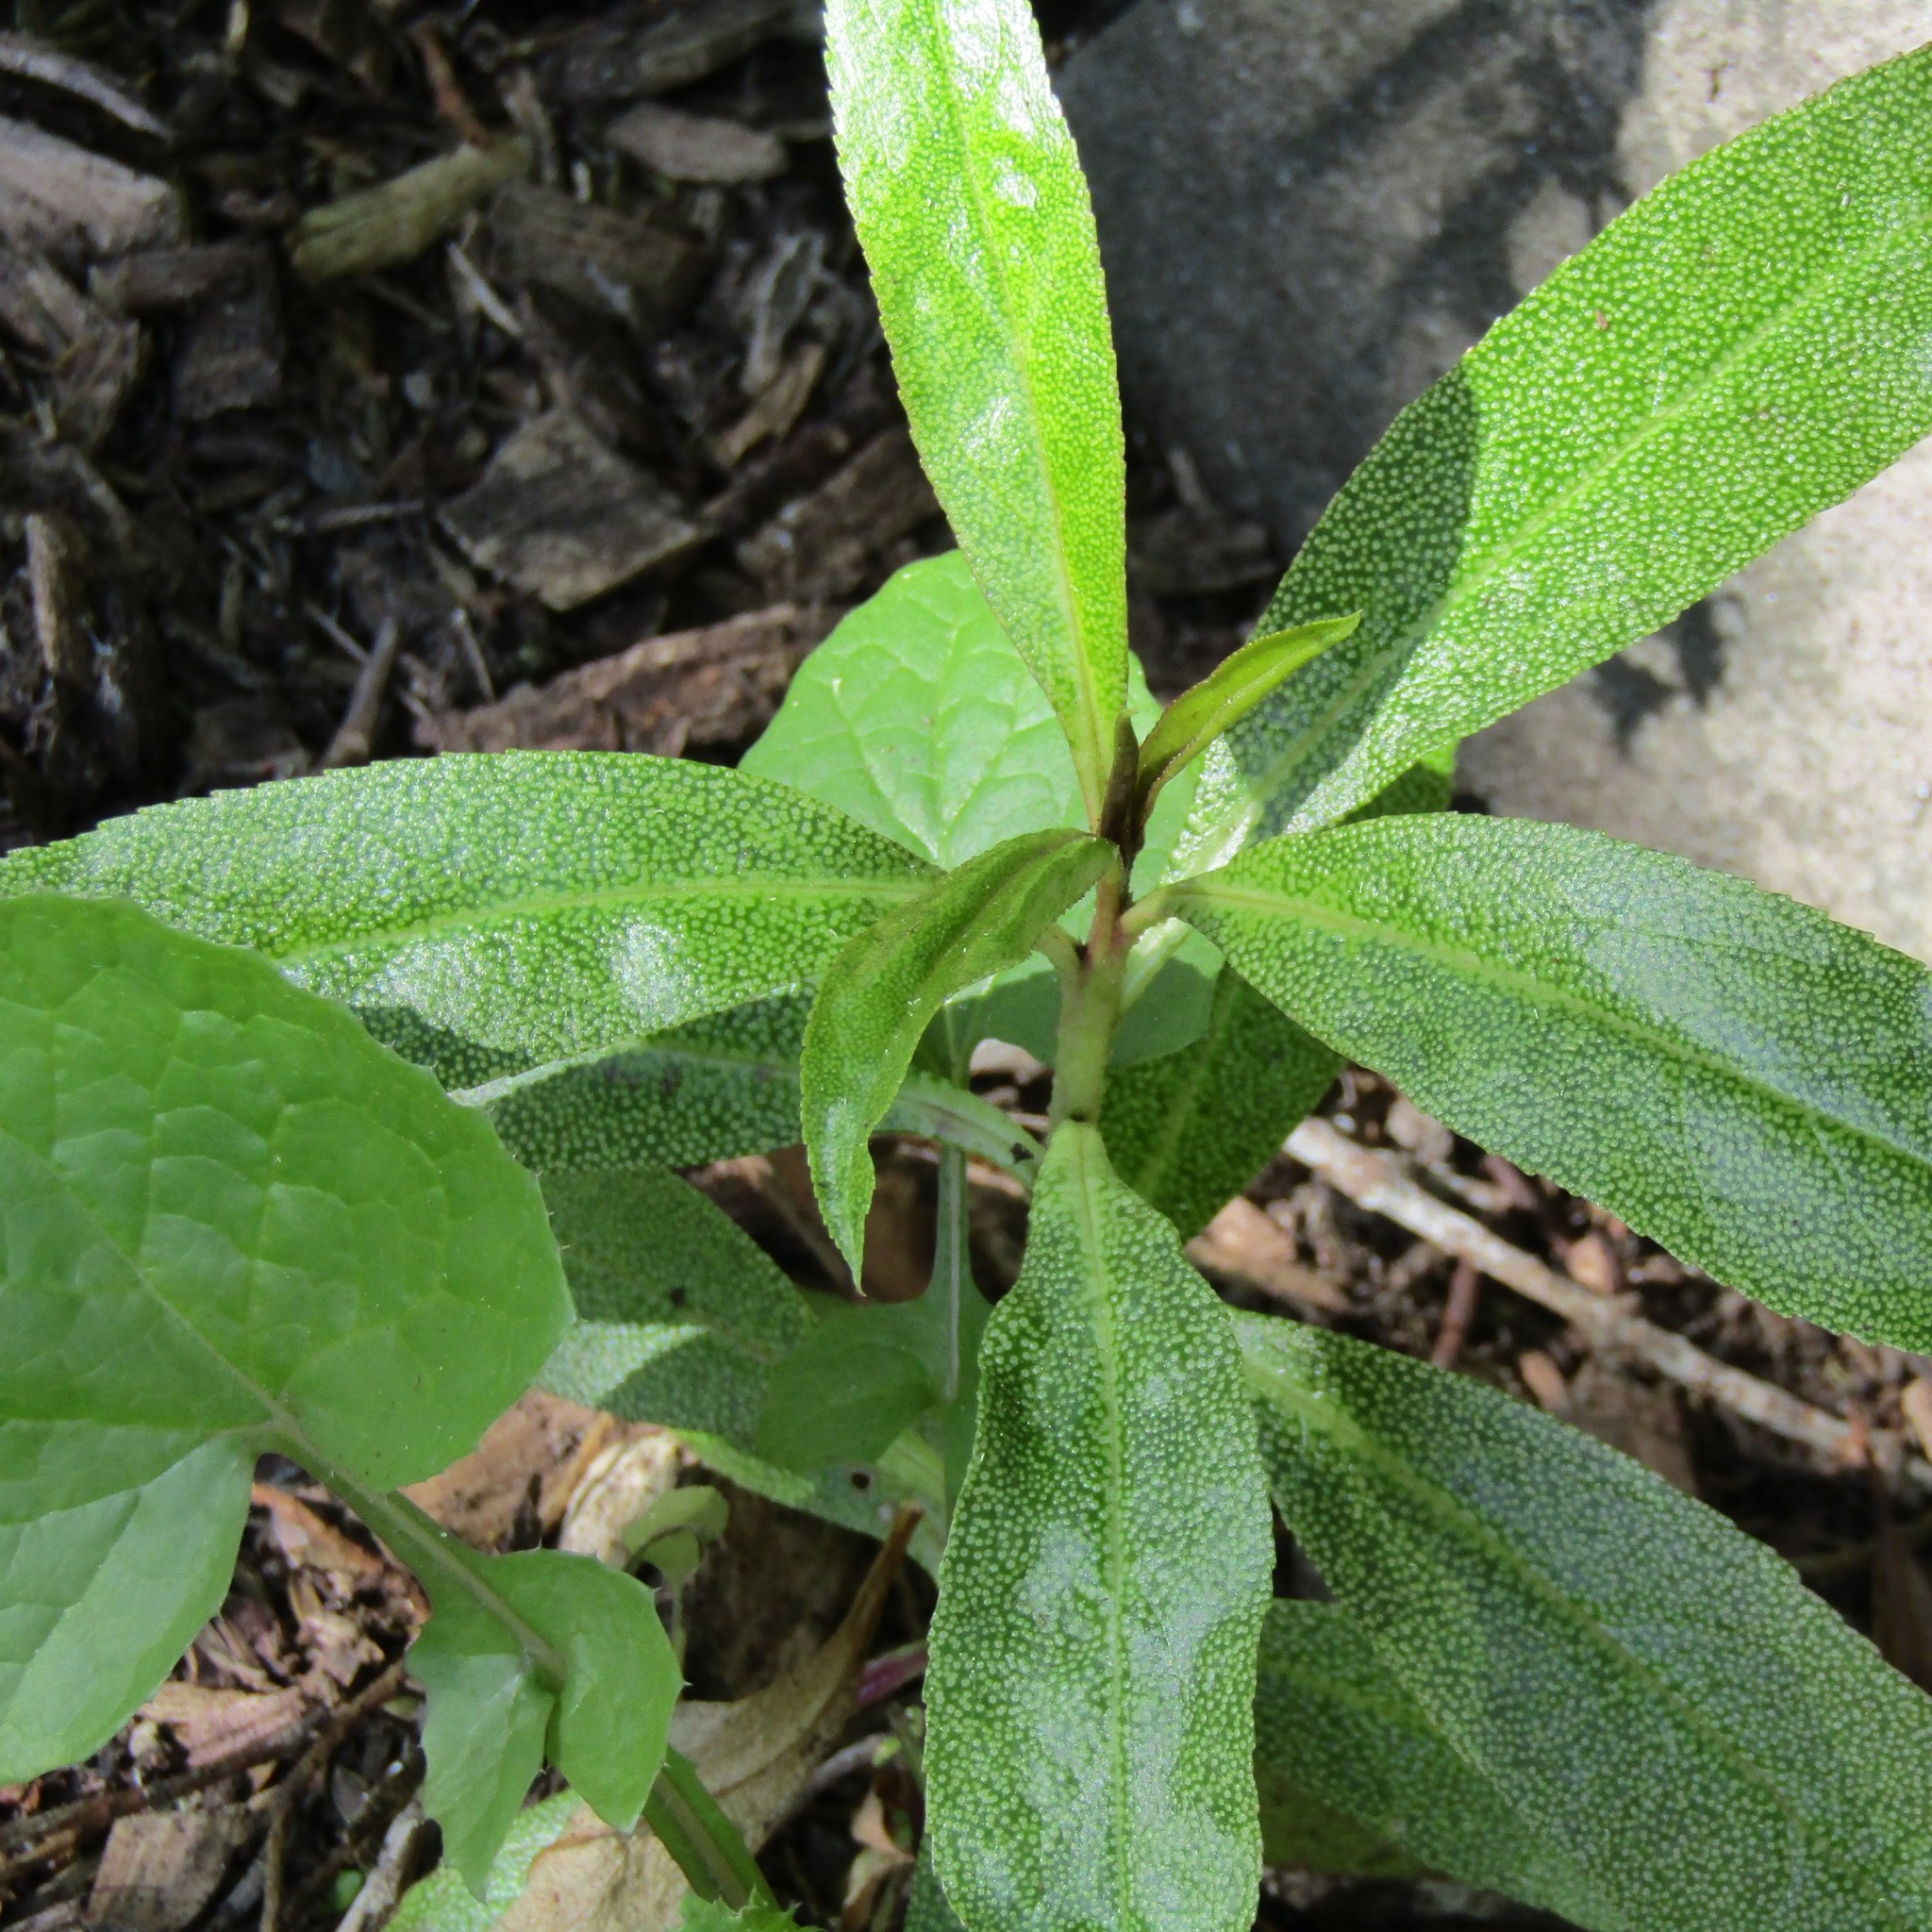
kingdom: Plantae
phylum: Tracheophyta
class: Magnoliopsida
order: Lamiales
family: Scrophulariaceae
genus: Myoporum
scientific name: Myoporum laetum
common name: Ngaio tree
